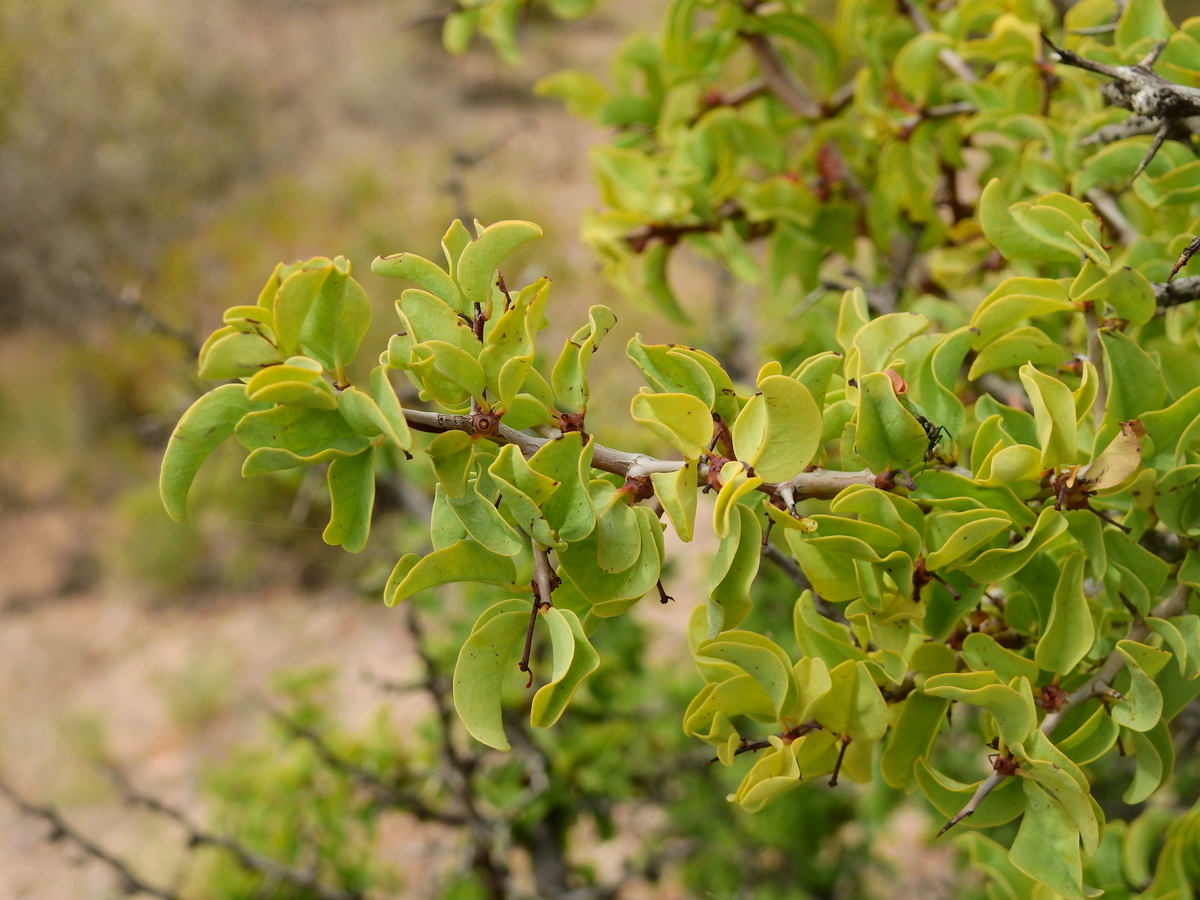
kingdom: Plantae
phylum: Tracheophyta
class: Magnoliopsida
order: Santalales
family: Ximeniaceae
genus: Ximenia
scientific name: Ximenia americana
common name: Tallowwood
